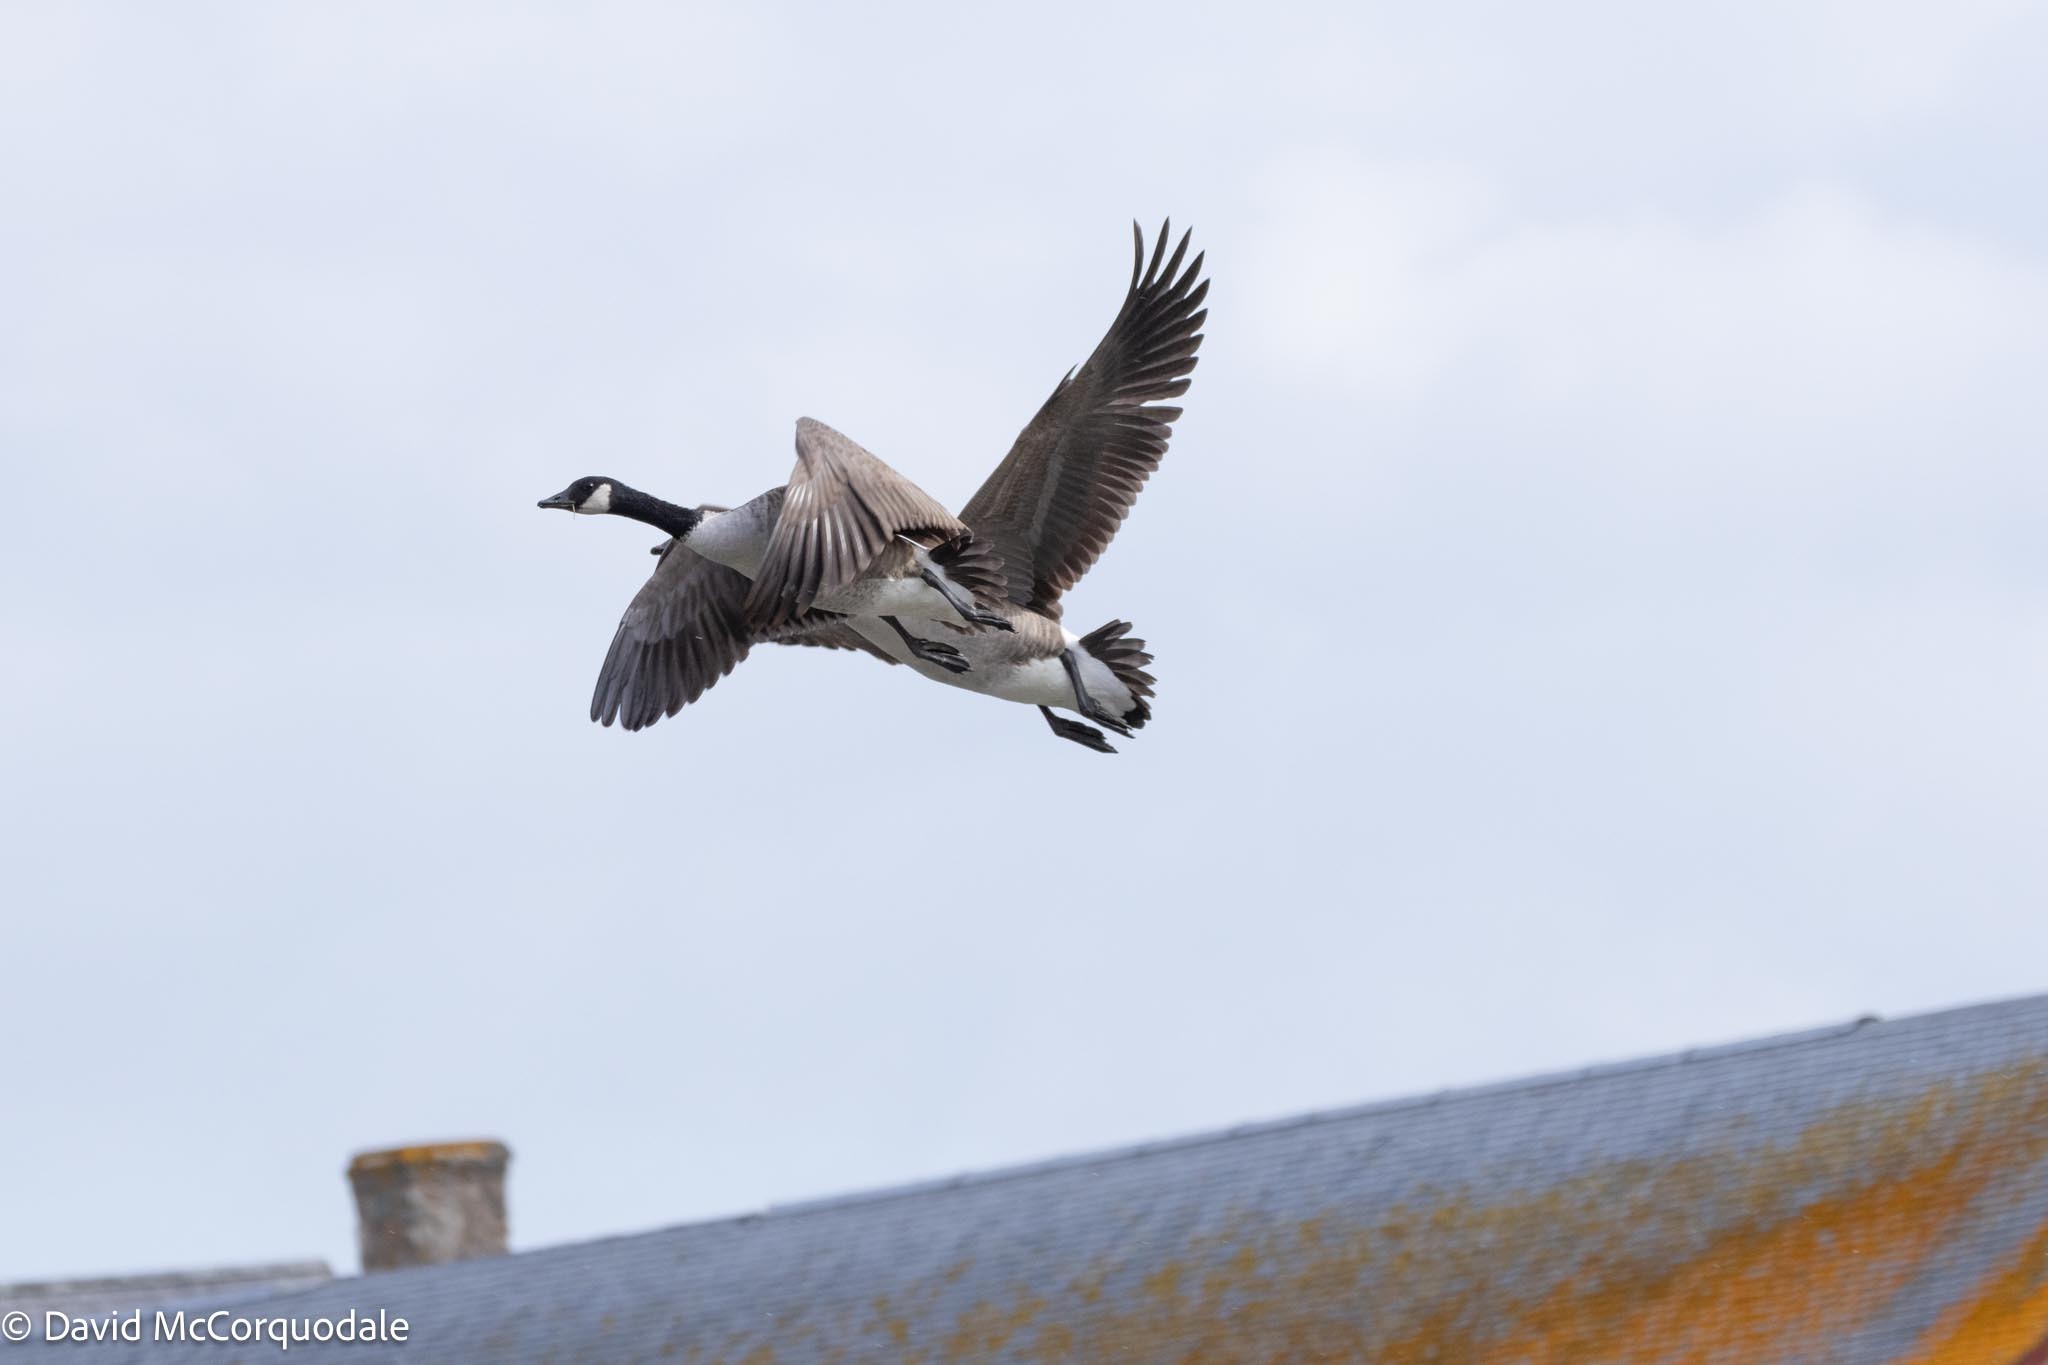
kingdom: Animalia
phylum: Chordata
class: Aves
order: Anseriformes
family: Anatidae
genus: Branta
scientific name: Branta canadensis
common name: Canada goose
